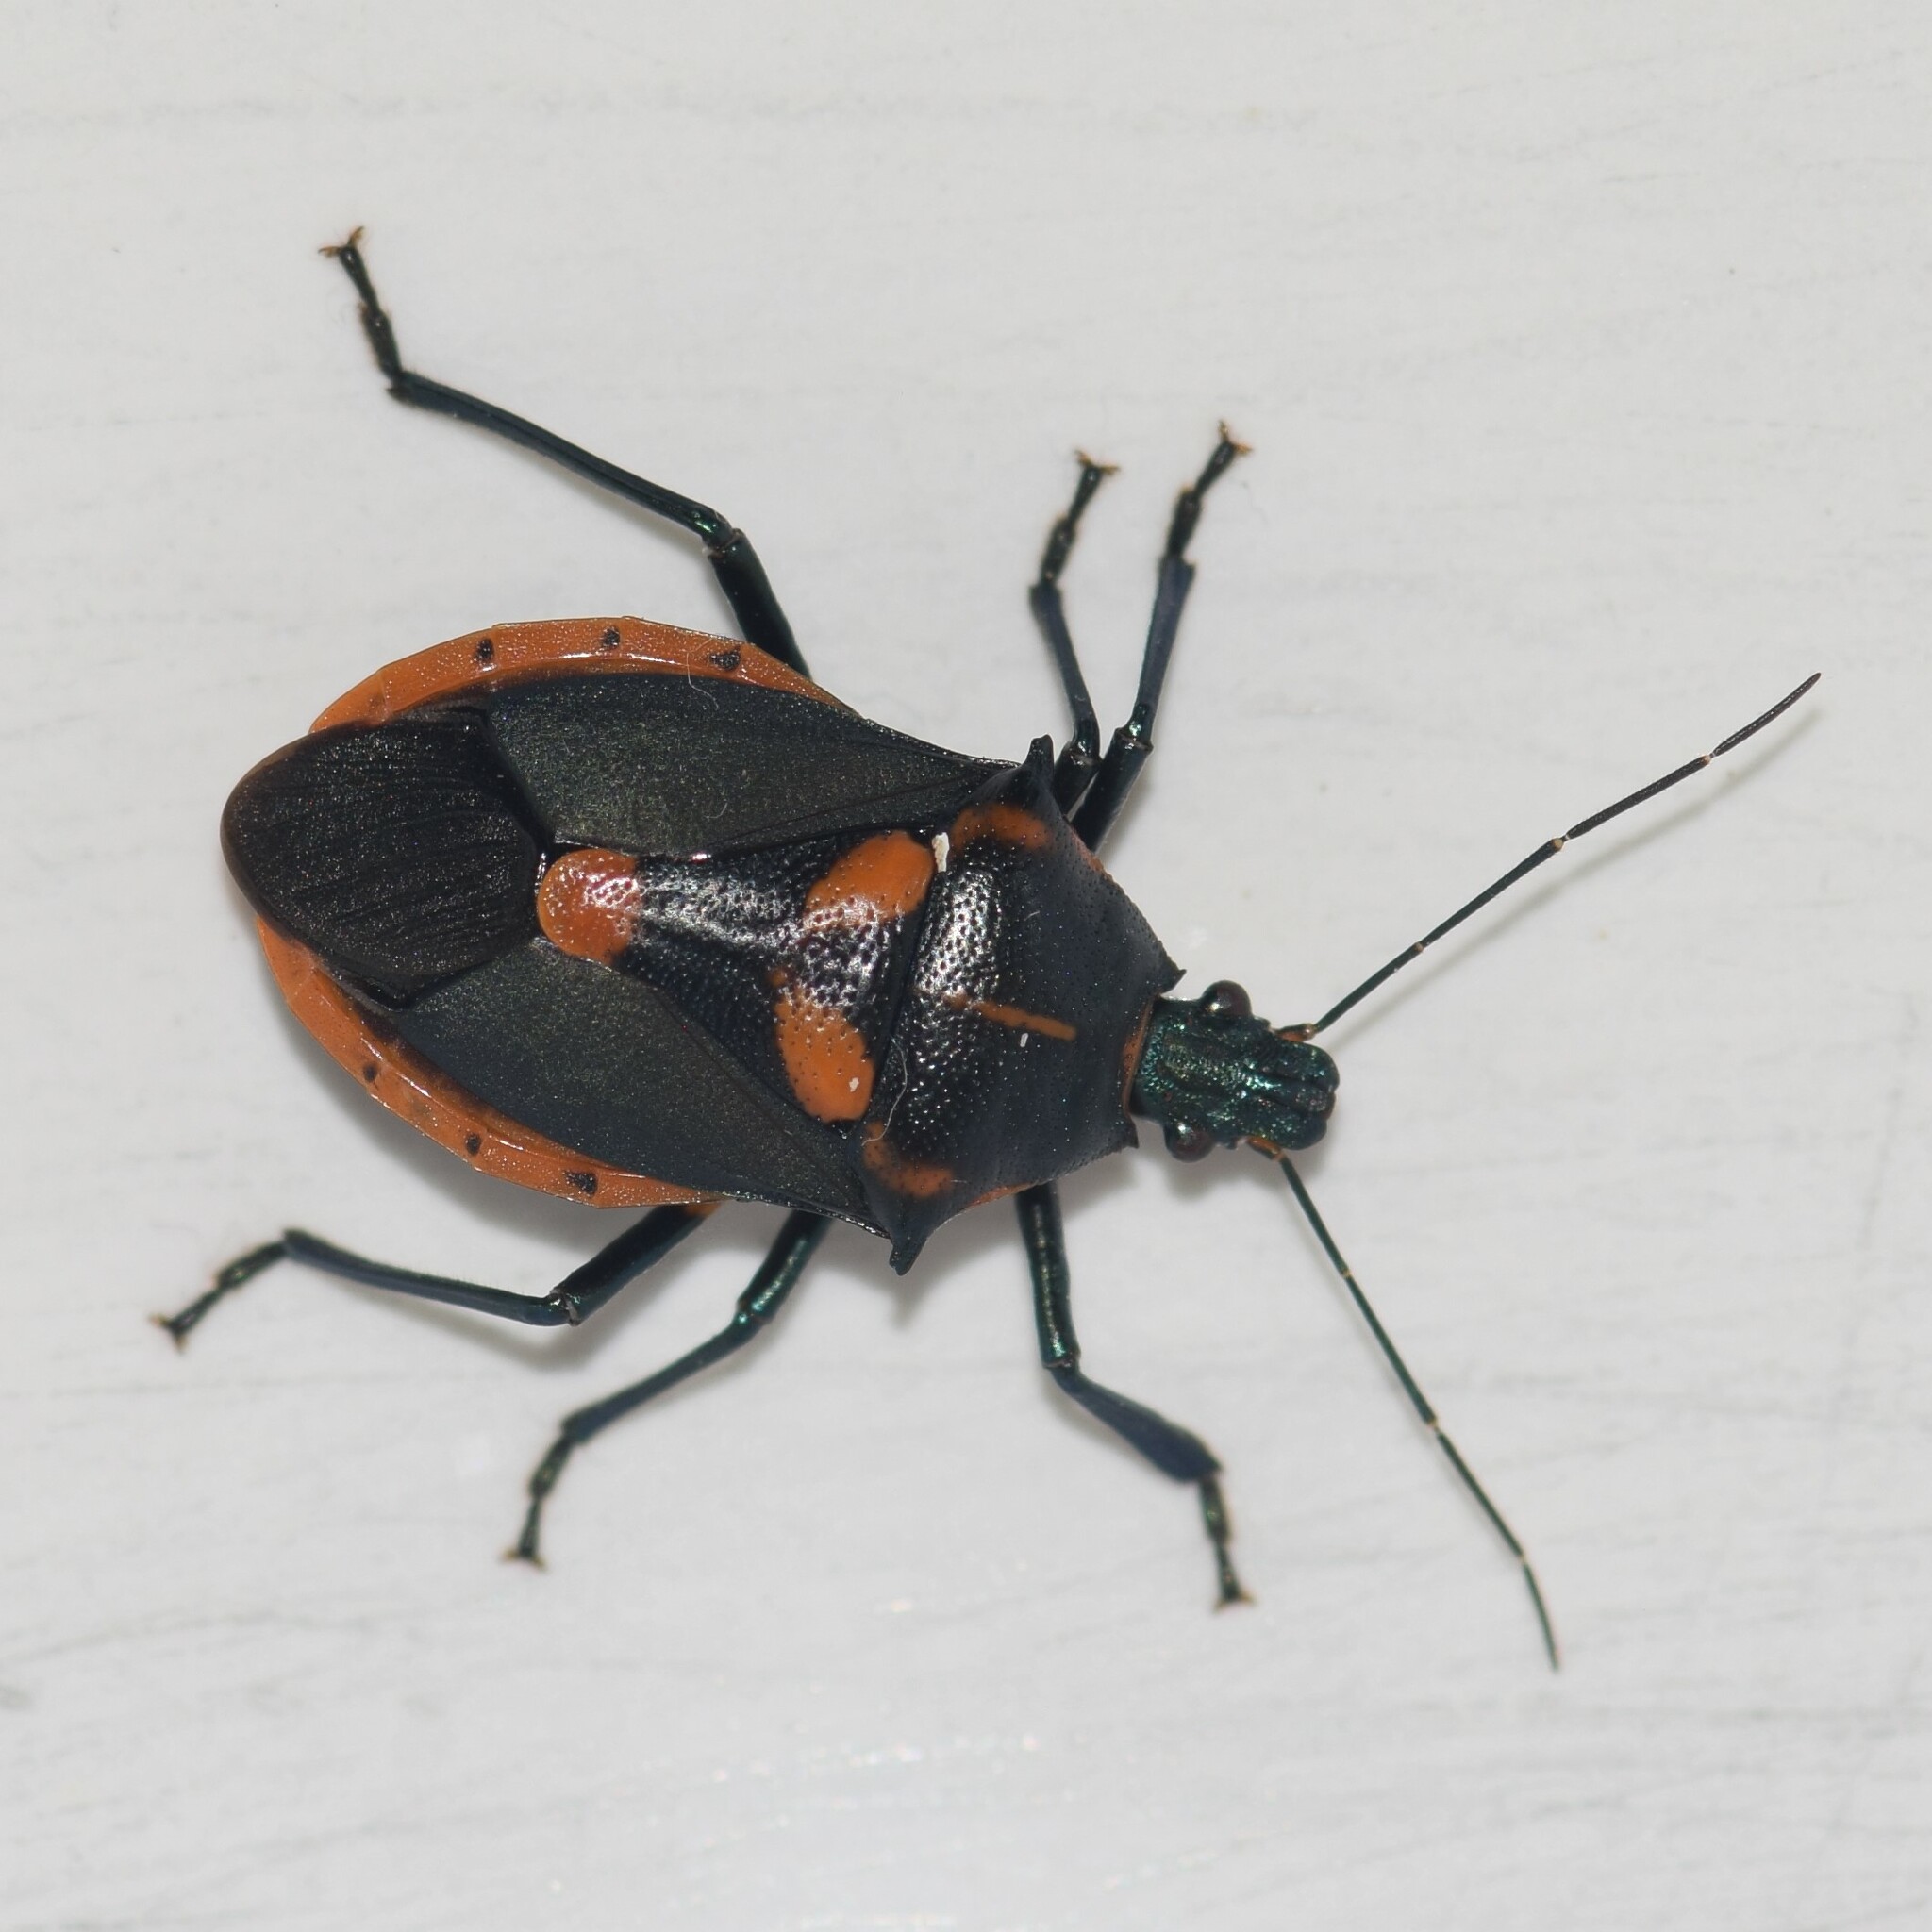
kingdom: Animalia
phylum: Arthropoda
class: Insecta
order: Hemiptera
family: Pentatomidae
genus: Euthyrhynchus
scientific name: Euthyrhynchus floridanus
